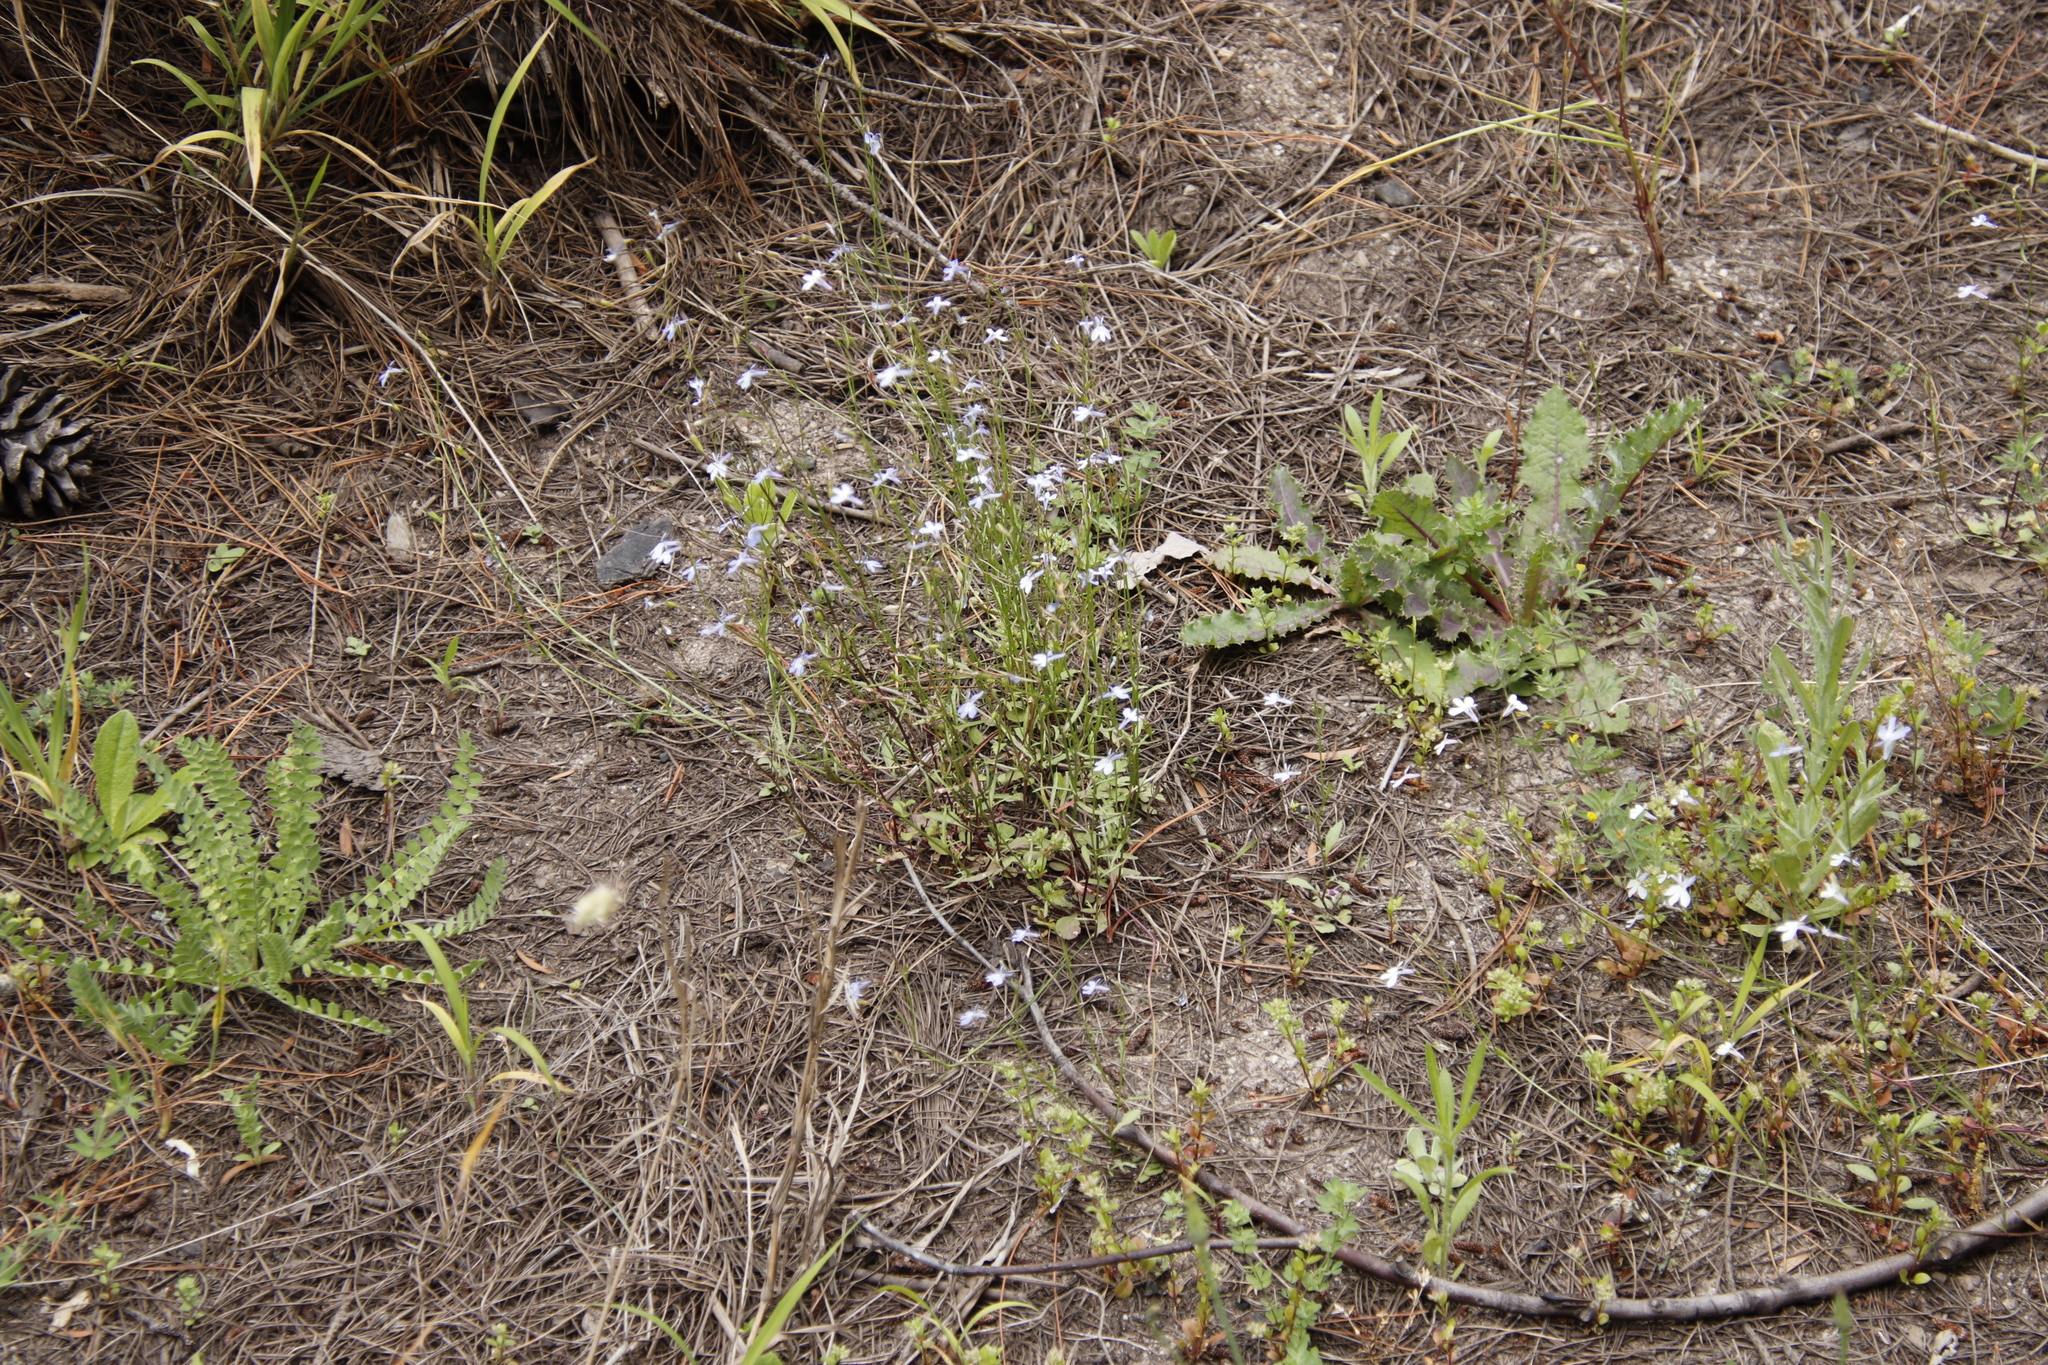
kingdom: Plantae
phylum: Tracheophyta
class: Magnoliopsida
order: Asterales
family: Campanulaceae
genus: Lobelia
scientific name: Lobelia erinus
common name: Edging lobelia
